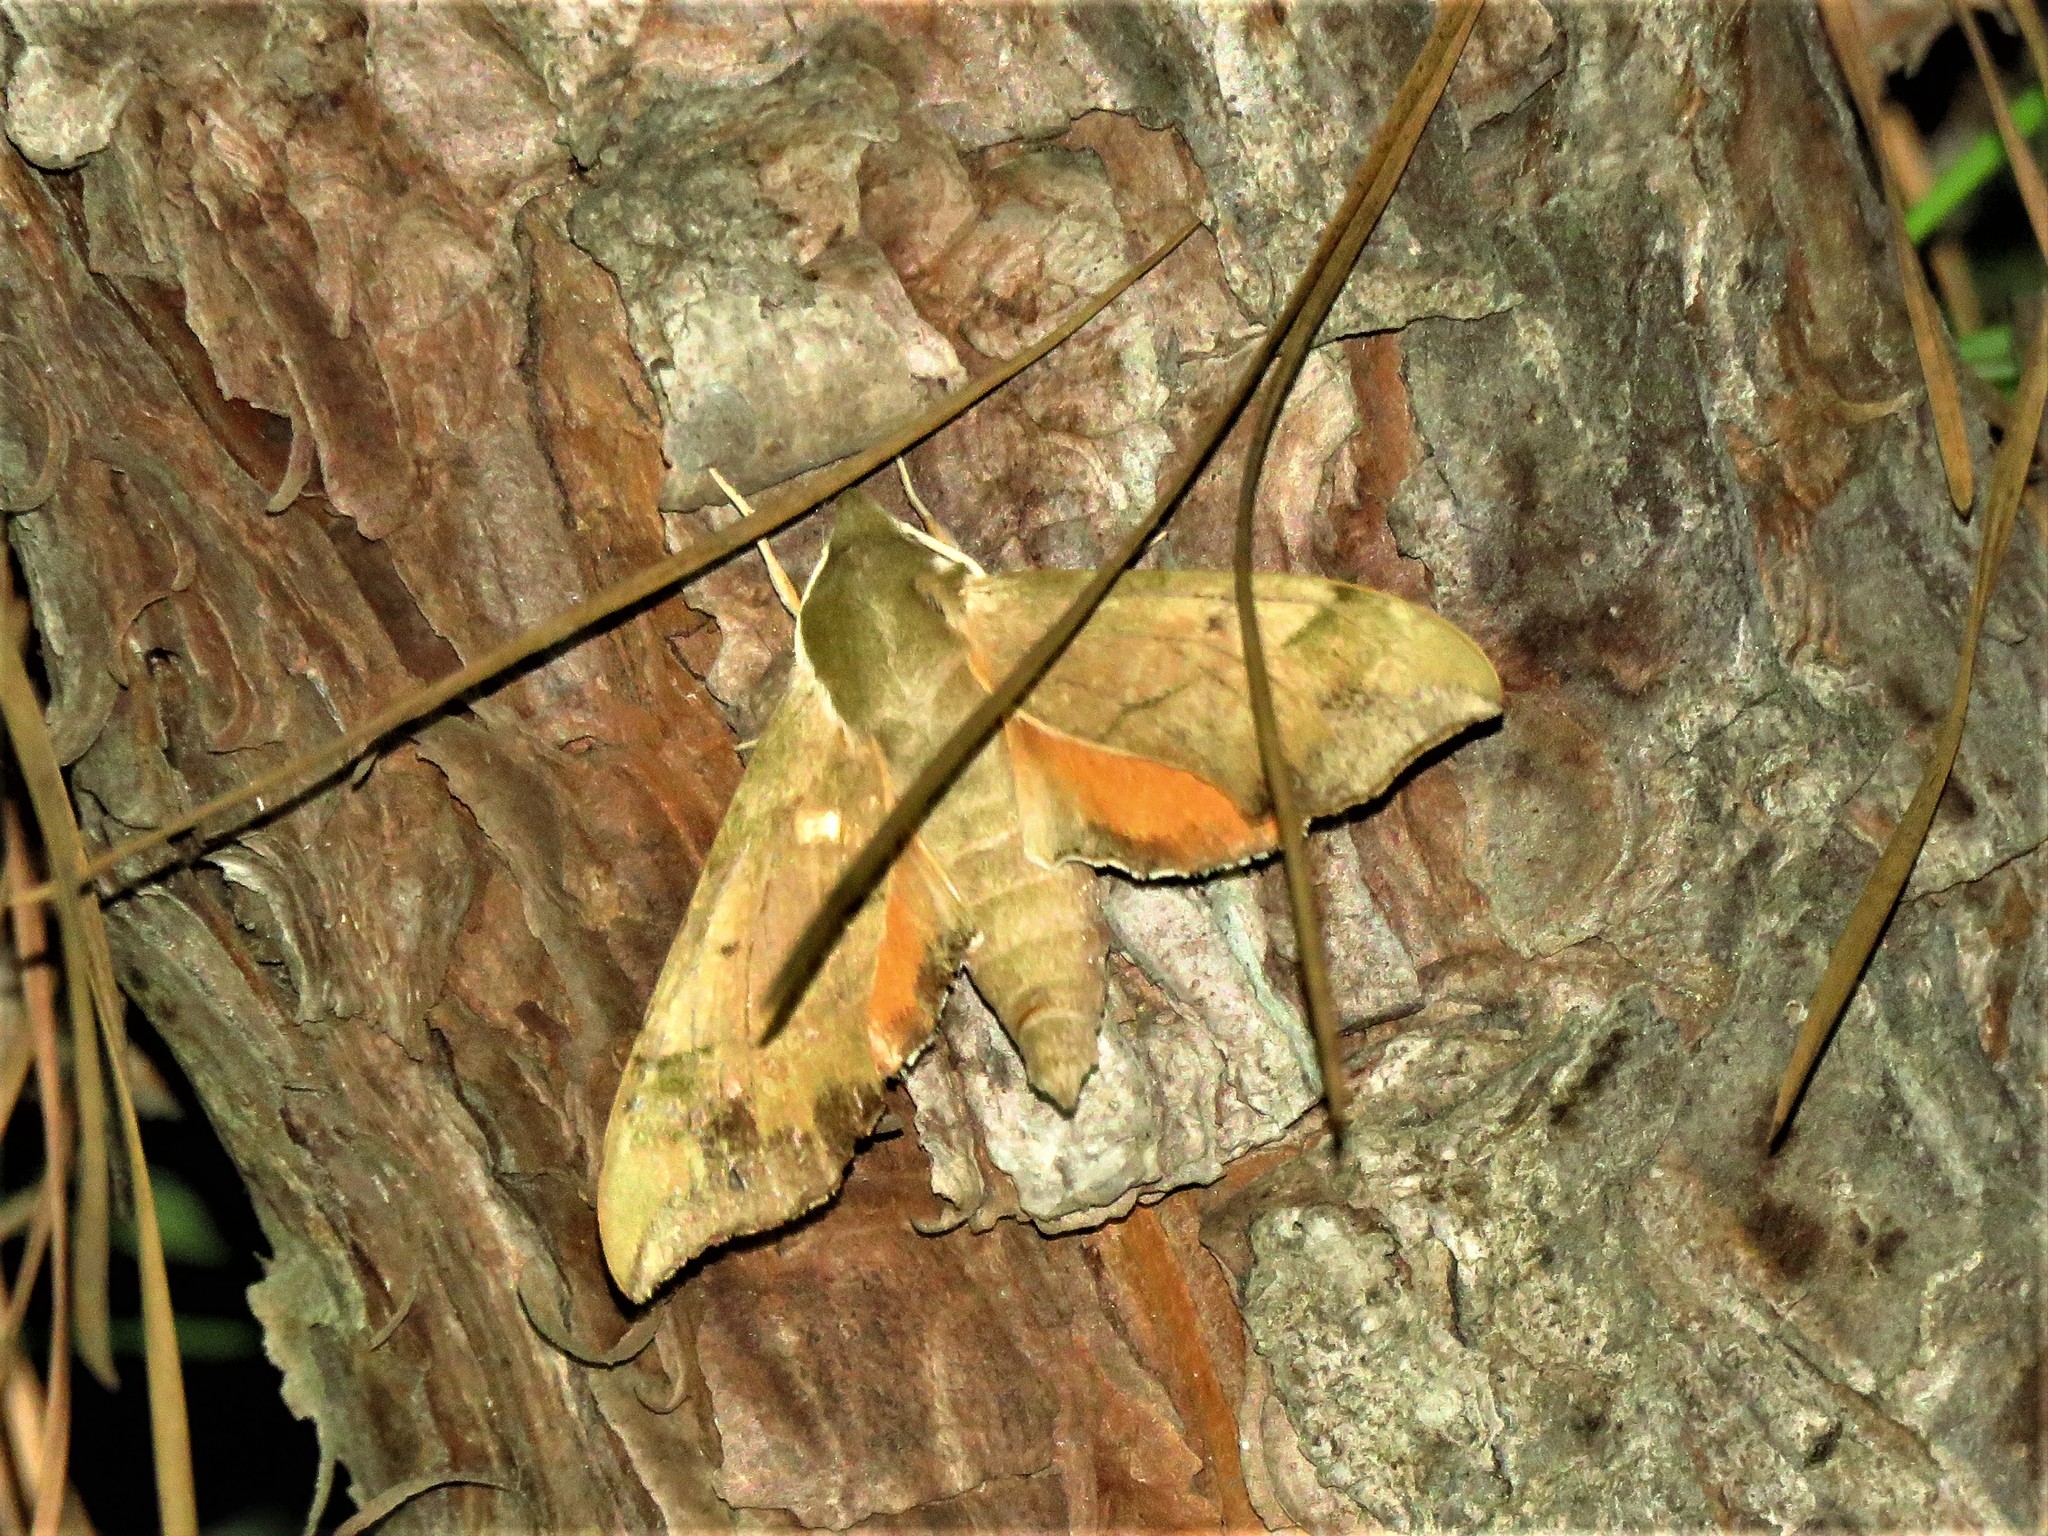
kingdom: Animalia
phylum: Arthropoda
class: Insecta
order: Lepidoptera
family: Sphingidae
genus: Darapsa
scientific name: Darapsa myron
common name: Hog sphinx
